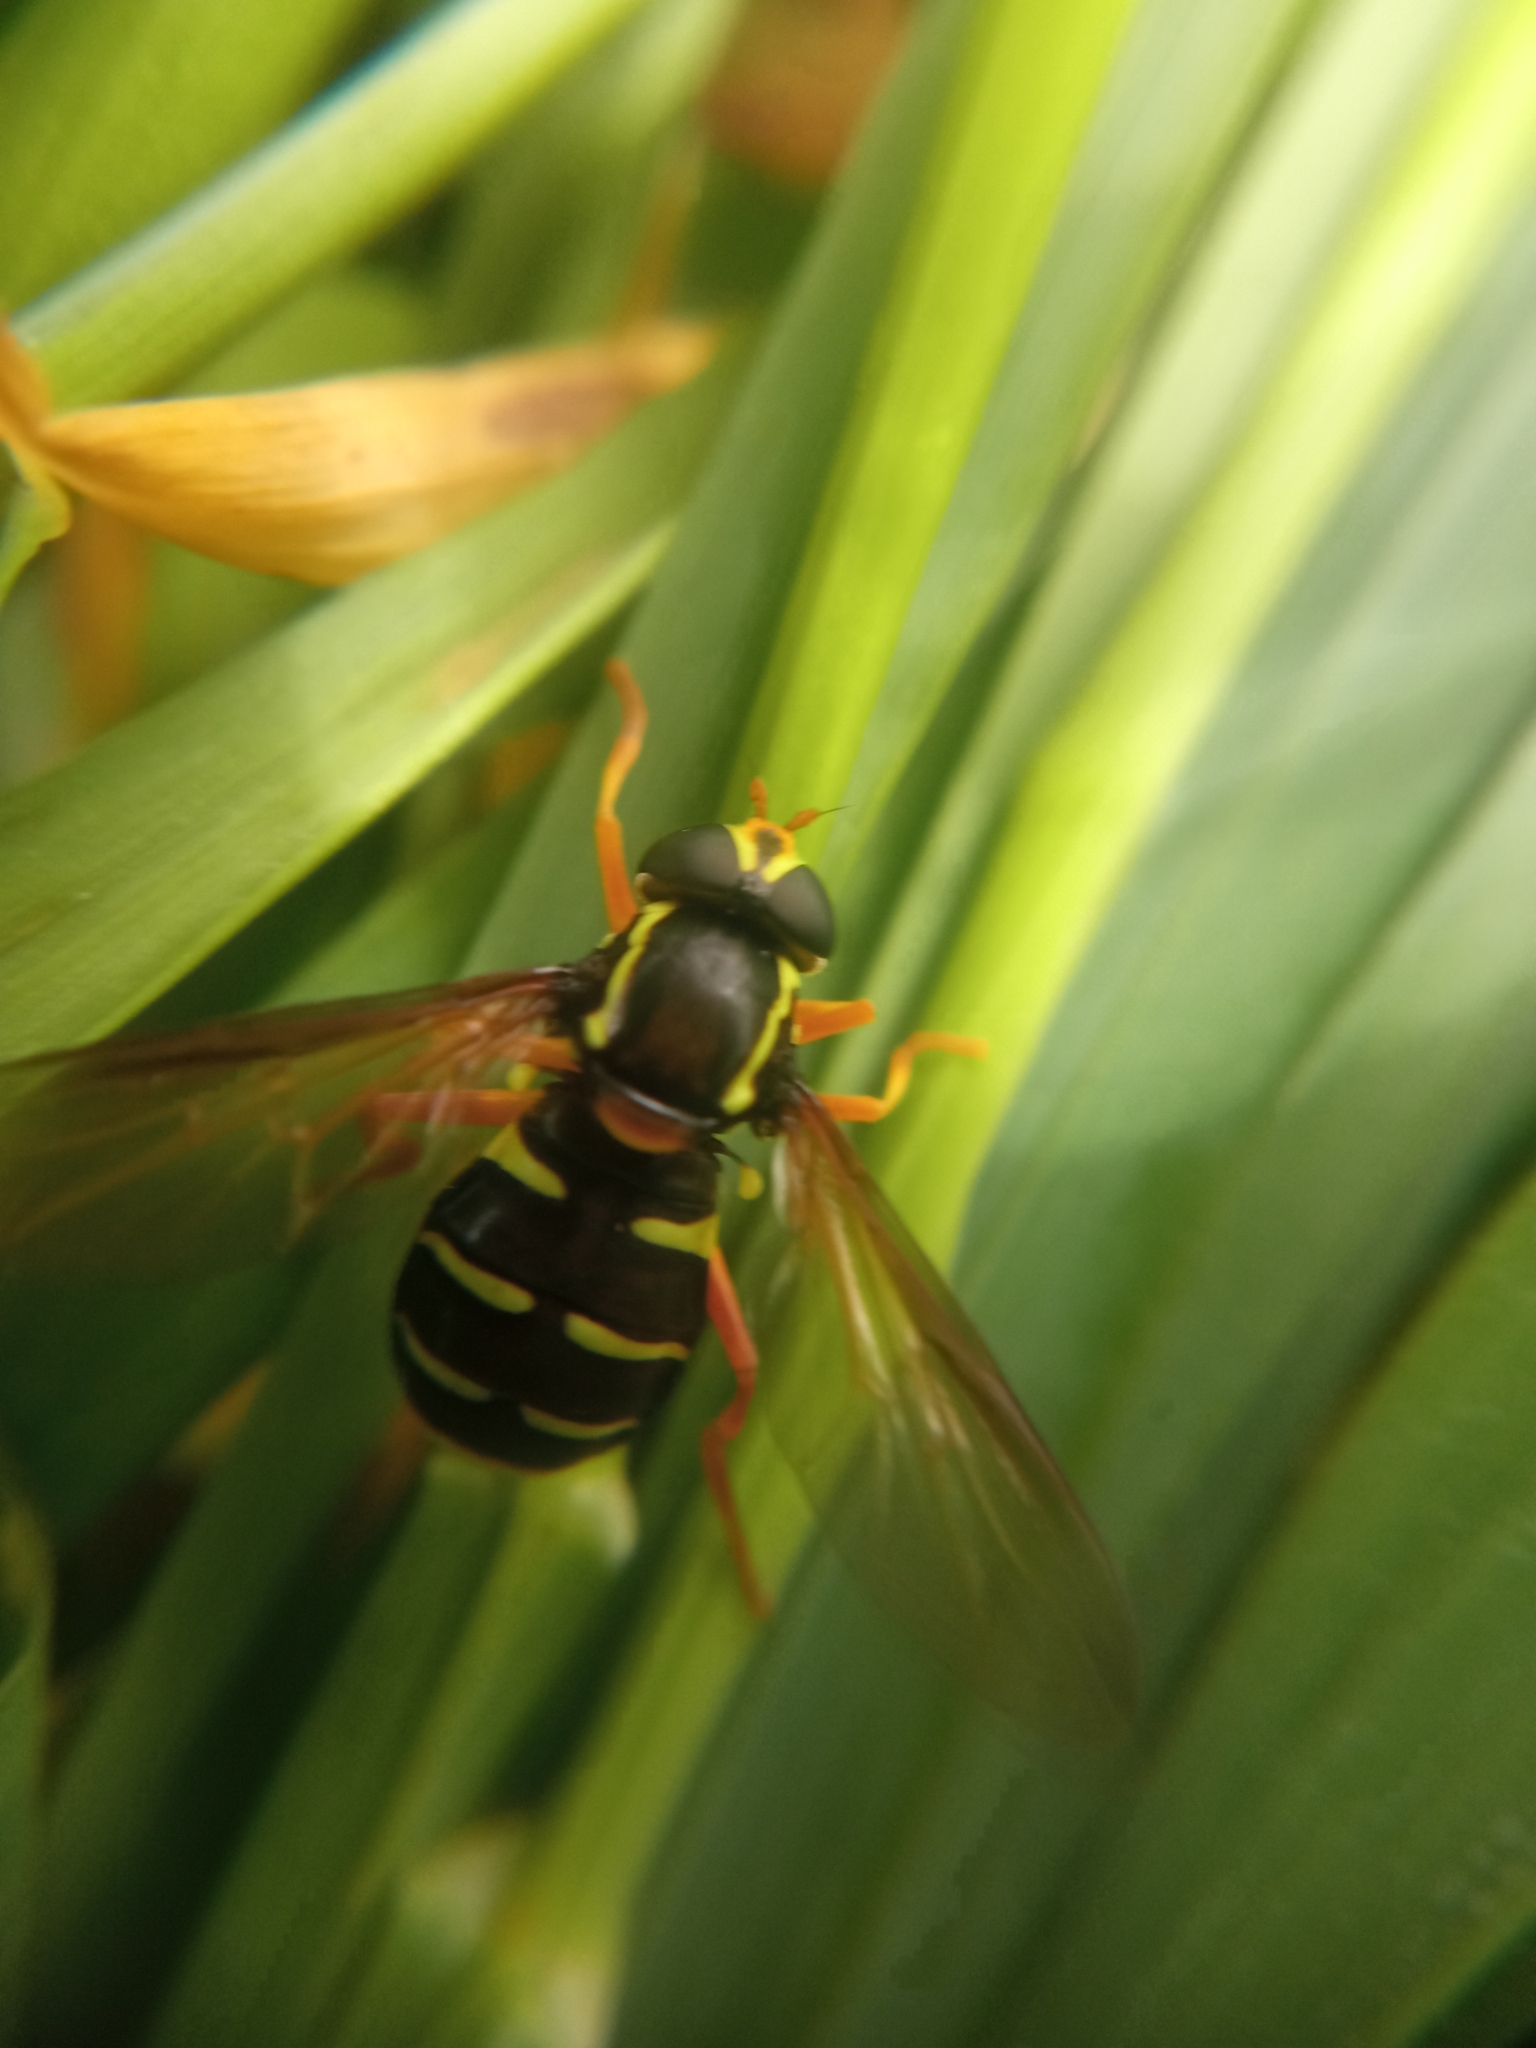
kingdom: Animalia
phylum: Arthropoda
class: Insecta
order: Diptera
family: Syrphidae
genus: Philhelius
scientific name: Philhelius citrofasciata
